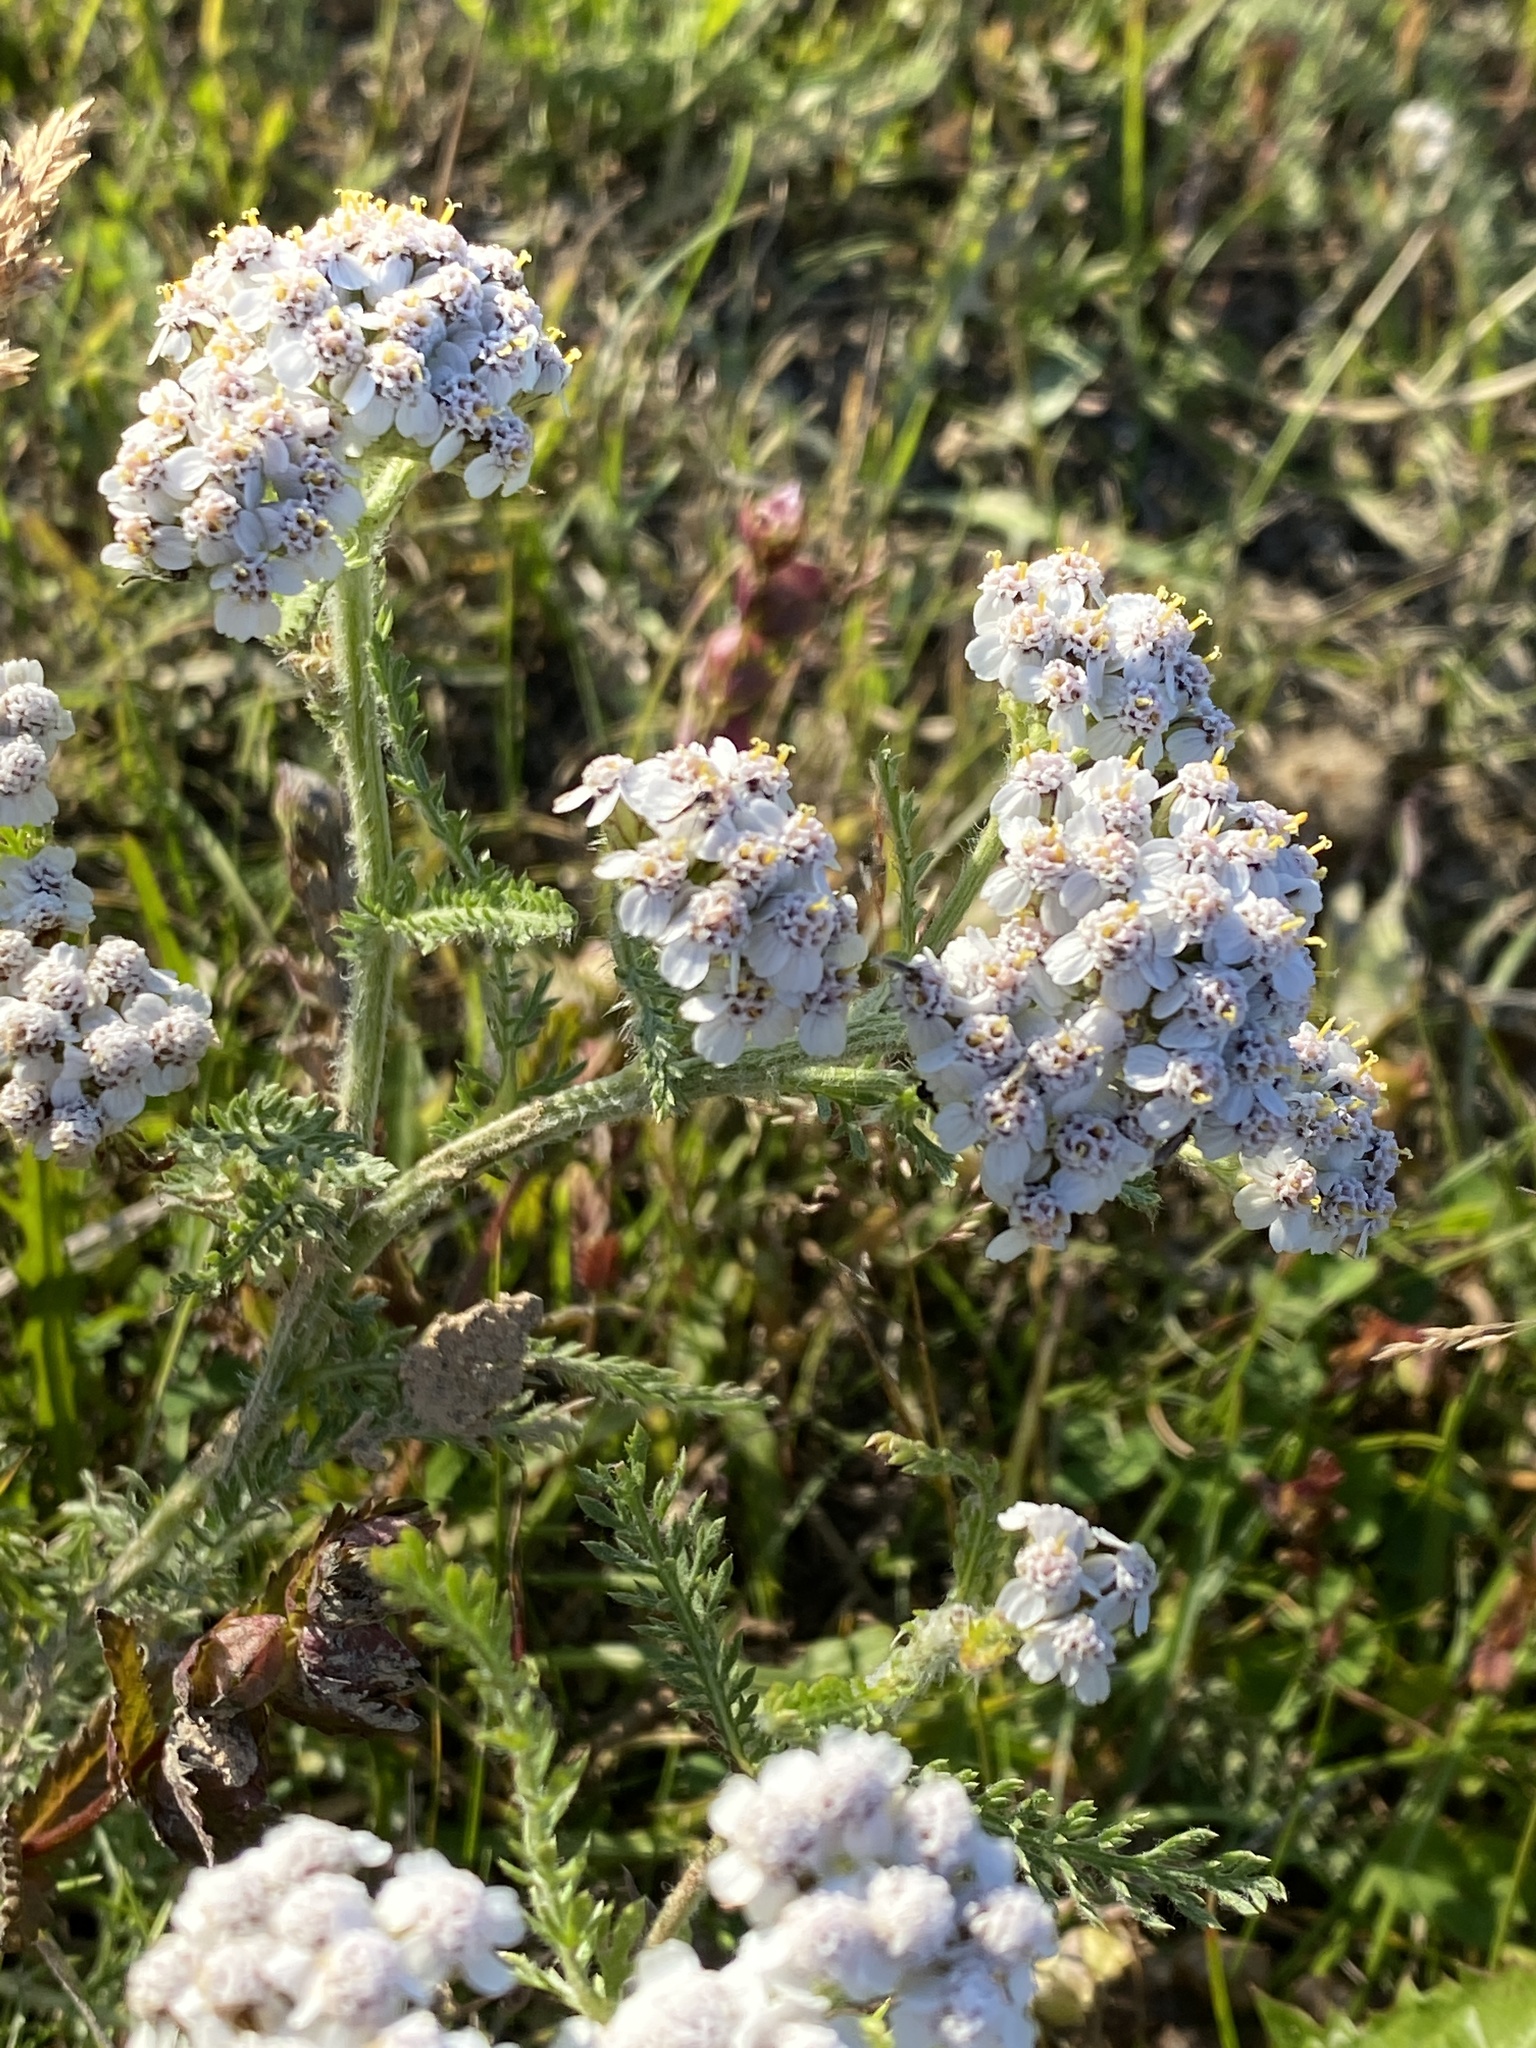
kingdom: Plantae
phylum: Tracheophyta
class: Magnoliopsida
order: Asterales
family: Asteraceae
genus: Achillea
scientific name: Achillea millefolium
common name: Yarrow
